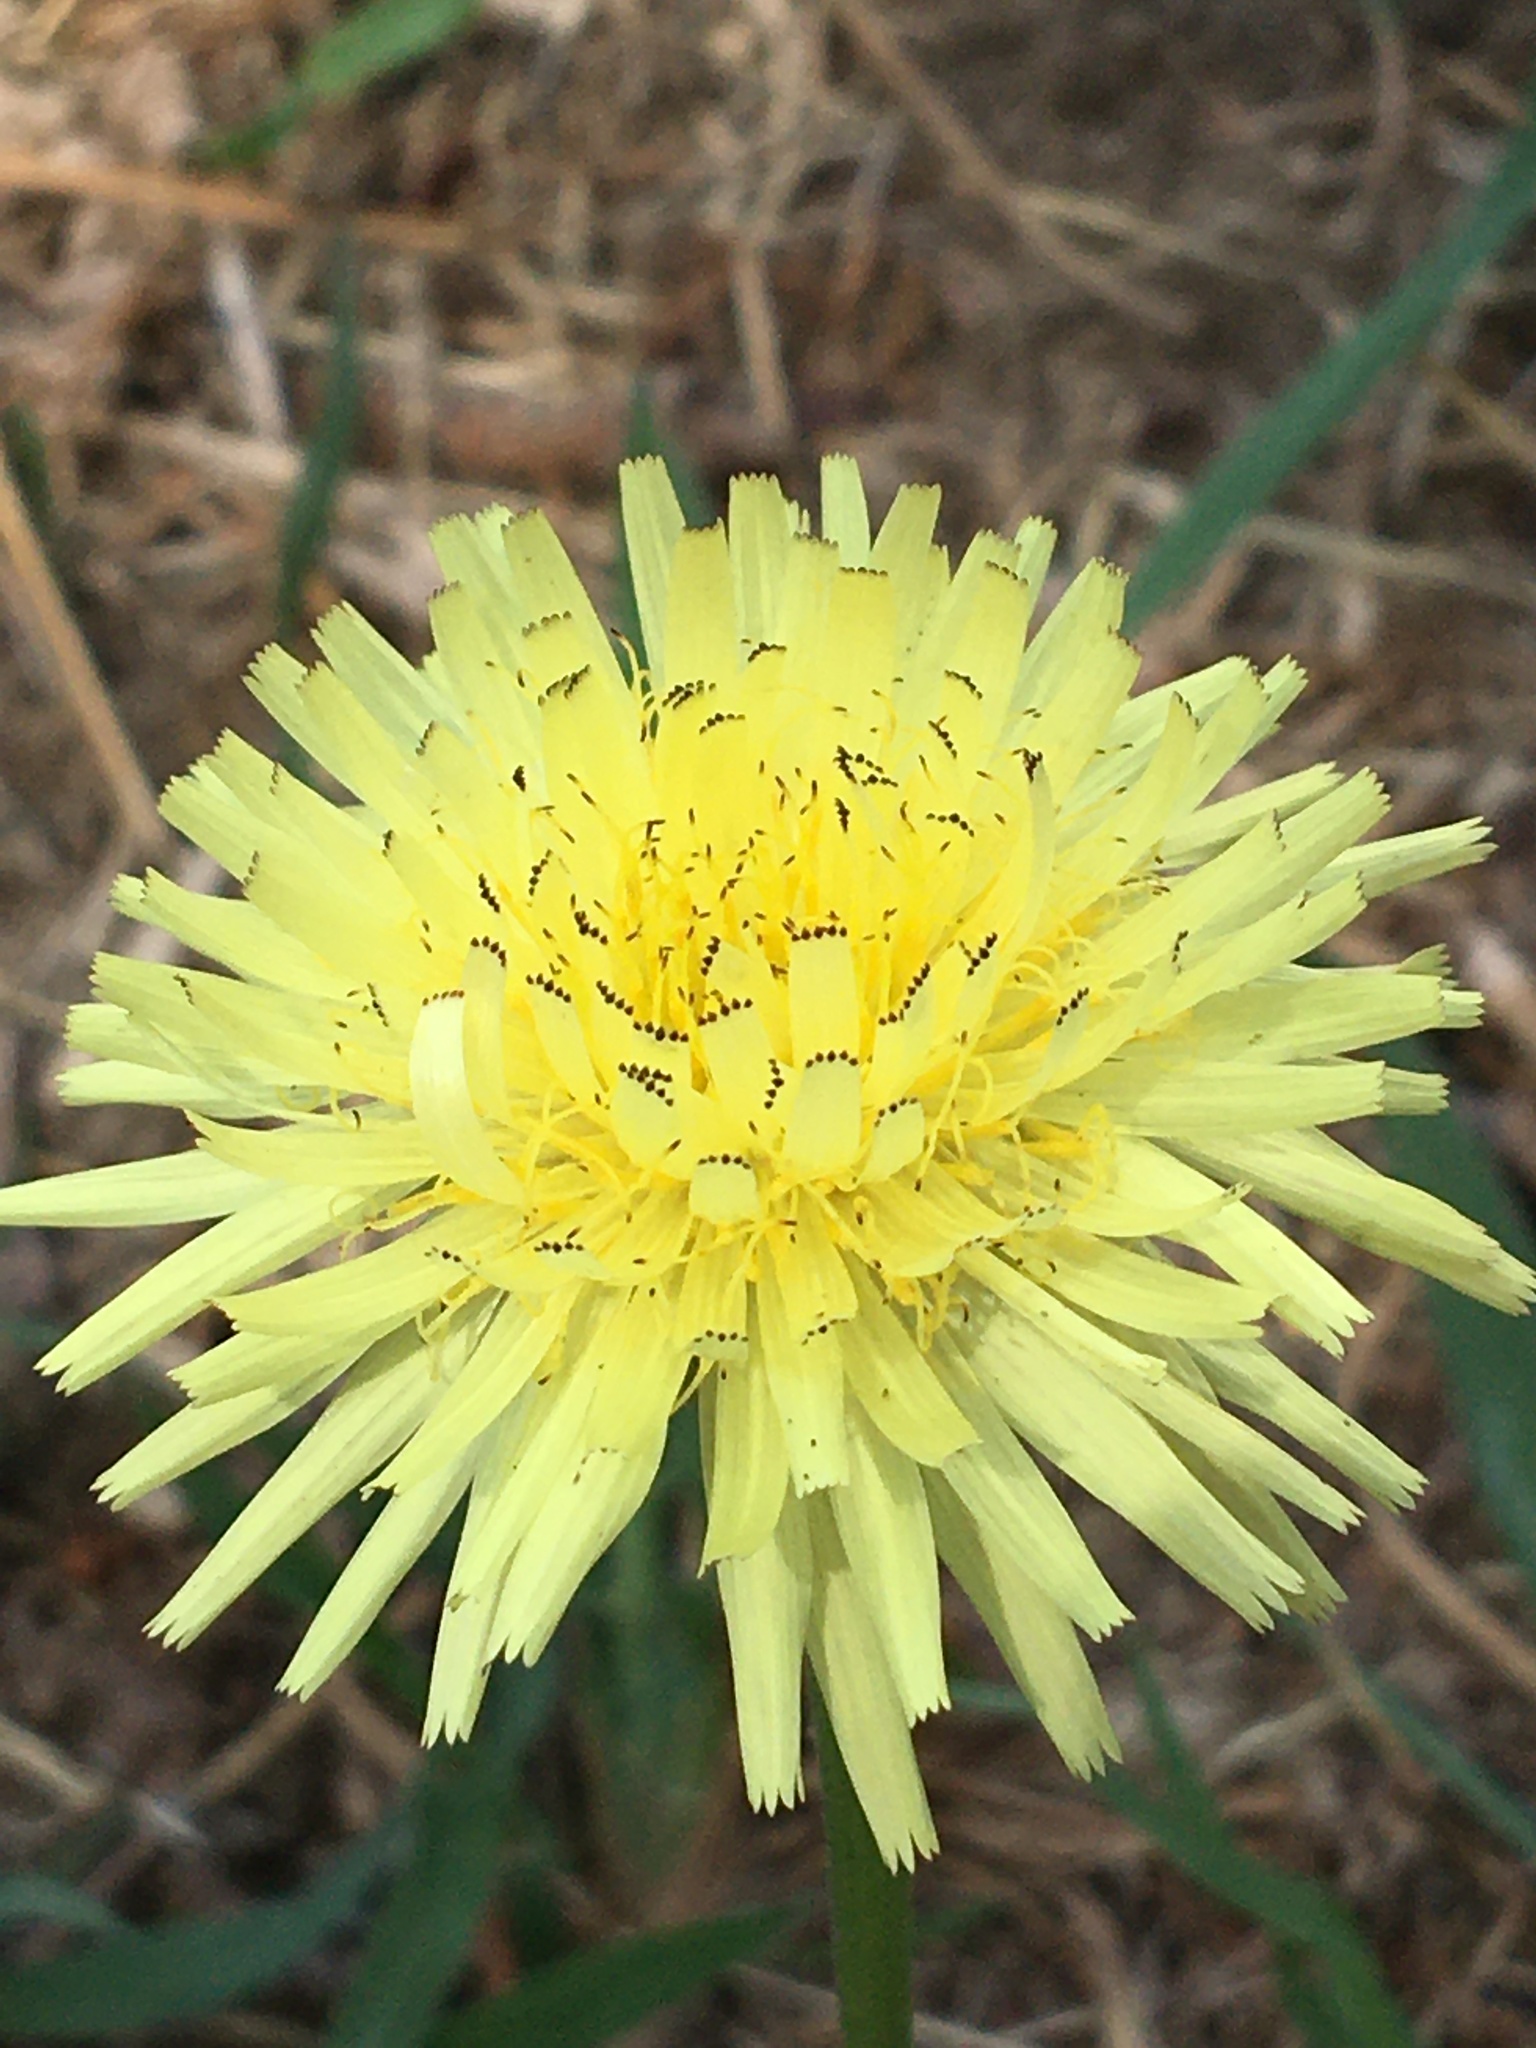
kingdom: Plantae
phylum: Tracheophyta
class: Magnoliopsida
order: Asterales
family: Asteraceae
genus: Urospermum
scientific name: Urospermum dalechampii
